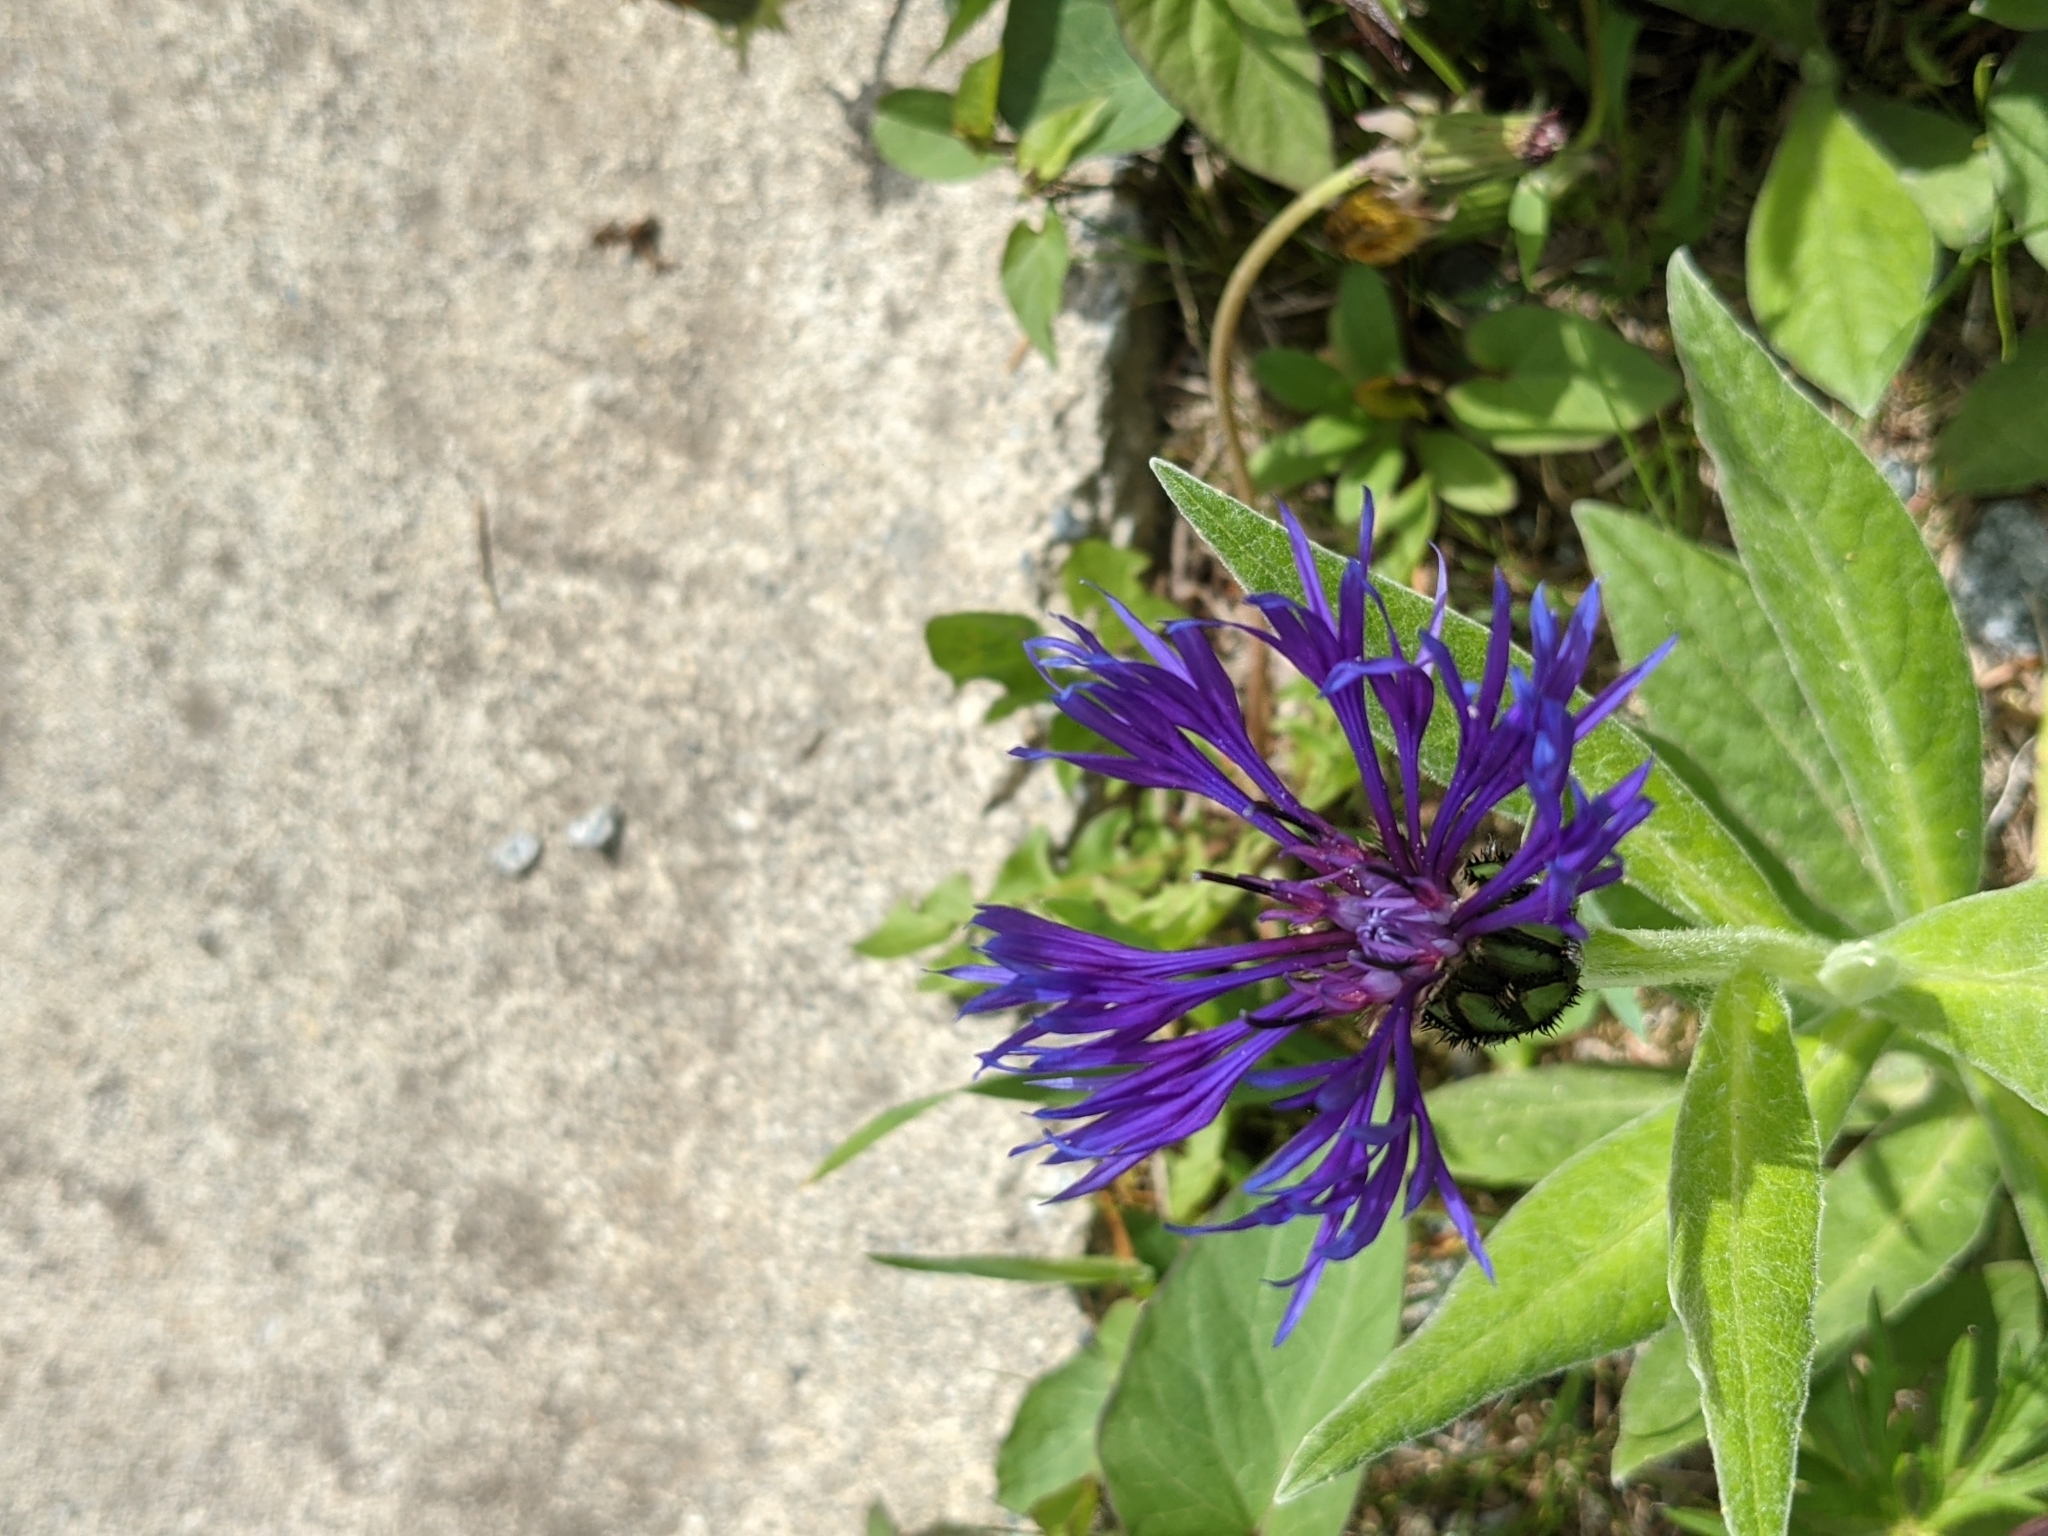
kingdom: Plantae
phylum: Tracheophyta
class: Magnoliopsida
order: Asterales
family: Asteraceae
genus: Centaurea
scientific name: Centaurea montana
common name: Perennial cornflower
